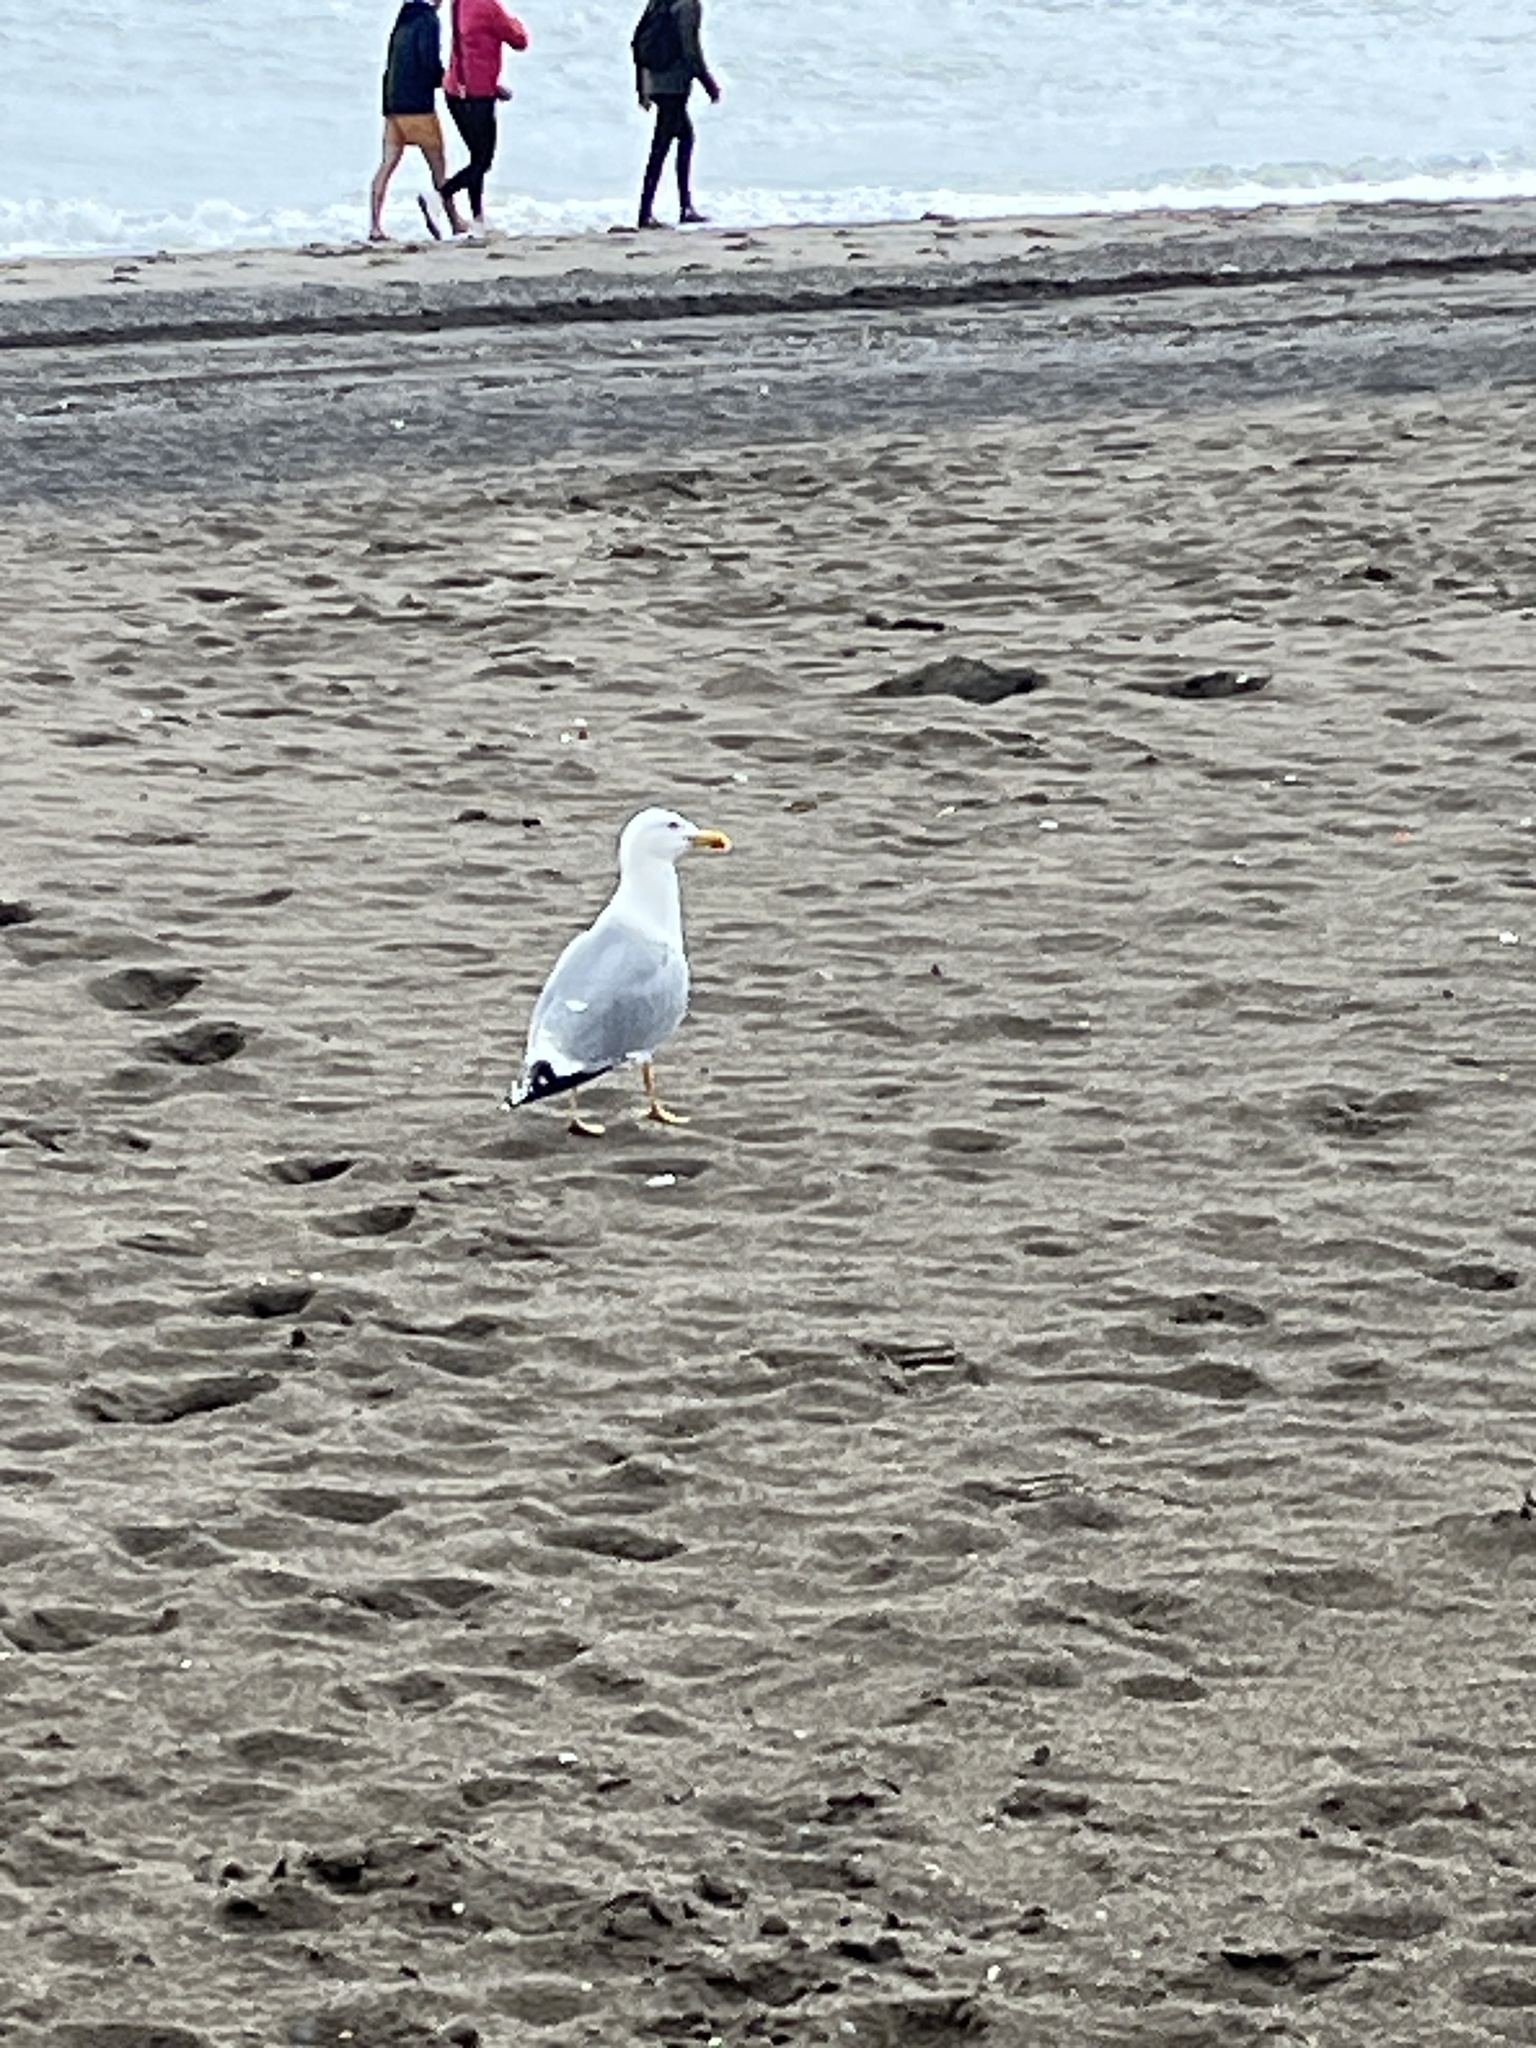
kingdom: Animalia
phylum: Chordata
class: Aves
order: Charadriiformes
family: Laridae
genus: Larus
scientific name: Larus michahellis
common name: Yellow-legged gull
